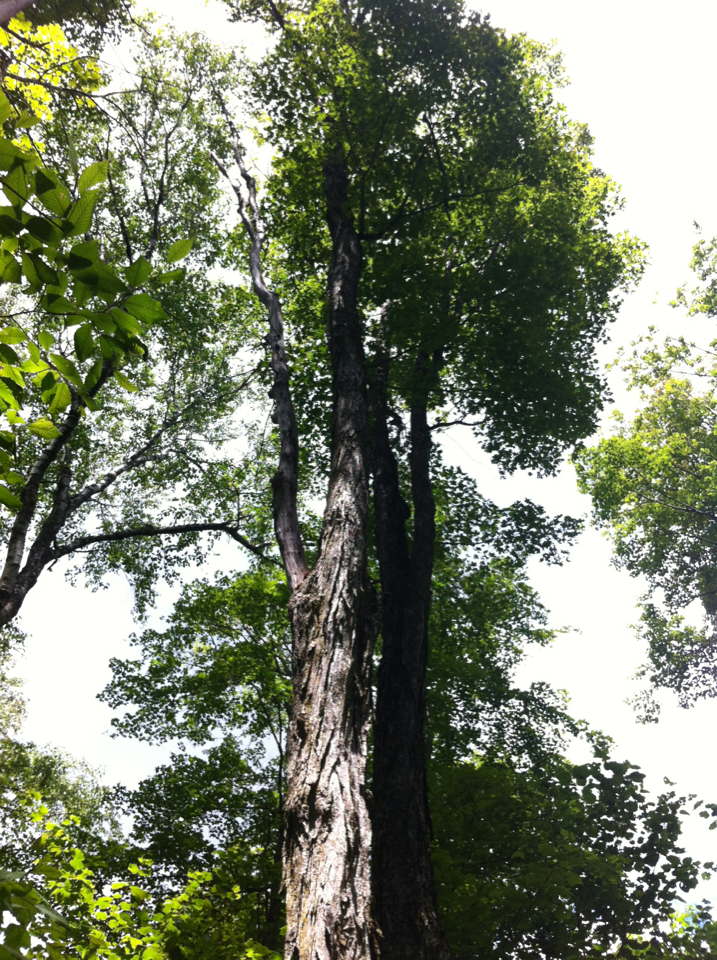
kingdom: Plantae
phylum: Tracheophyta
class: Magnoliopsida
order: Sapindales
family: Sapindaceae
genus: Acer
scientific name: Acer saccharum
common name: Sugar maple
